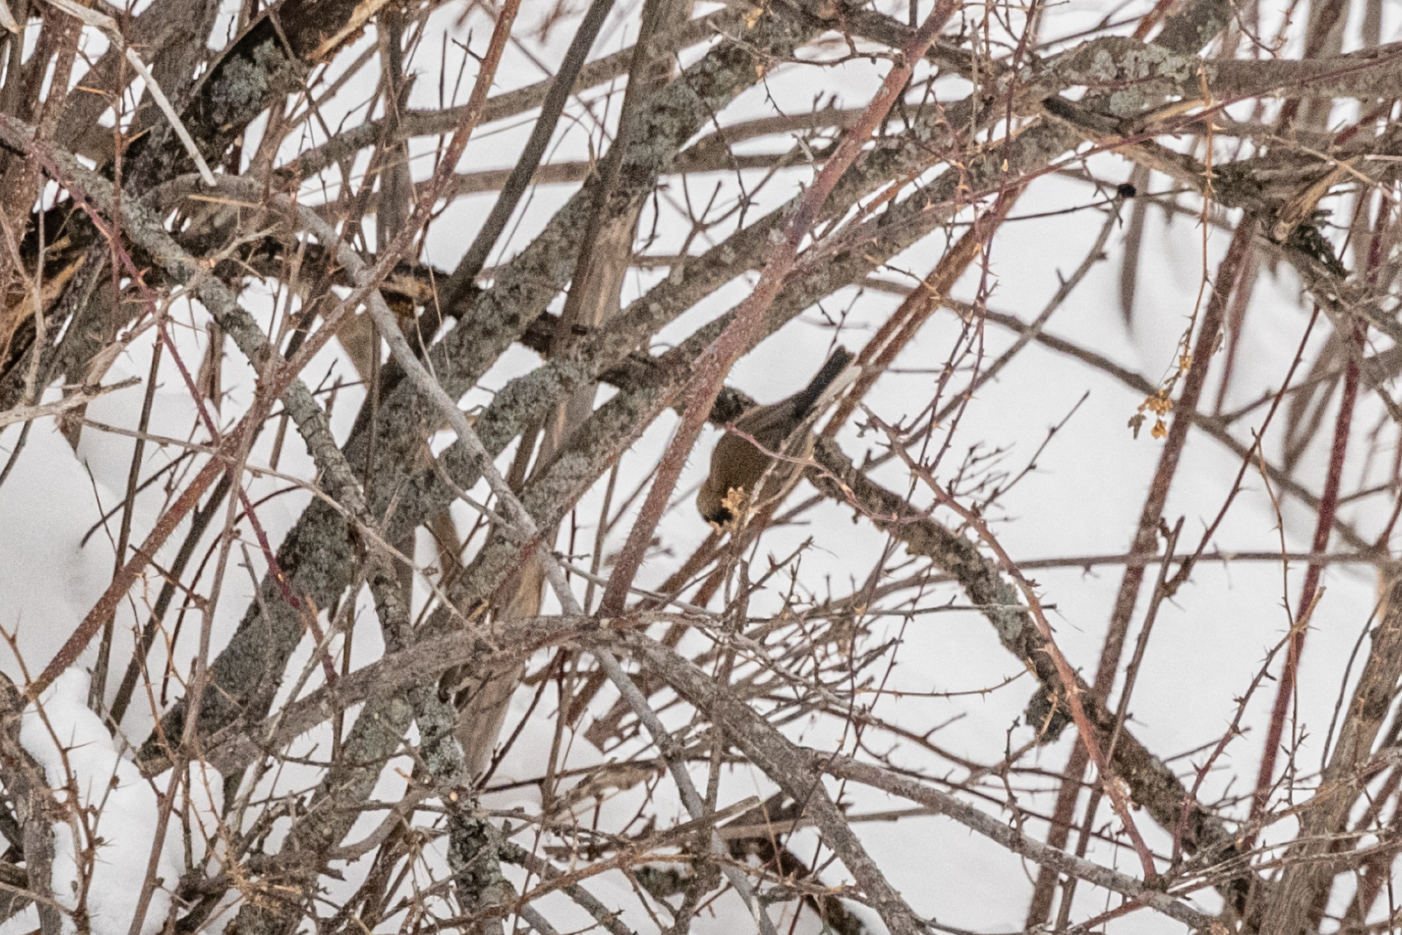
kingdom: Animalia
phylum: Chordata
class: Aves
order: Passeriformes
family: Paridae
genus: Poecile
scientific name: Poecile montanus
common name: Willow tit
